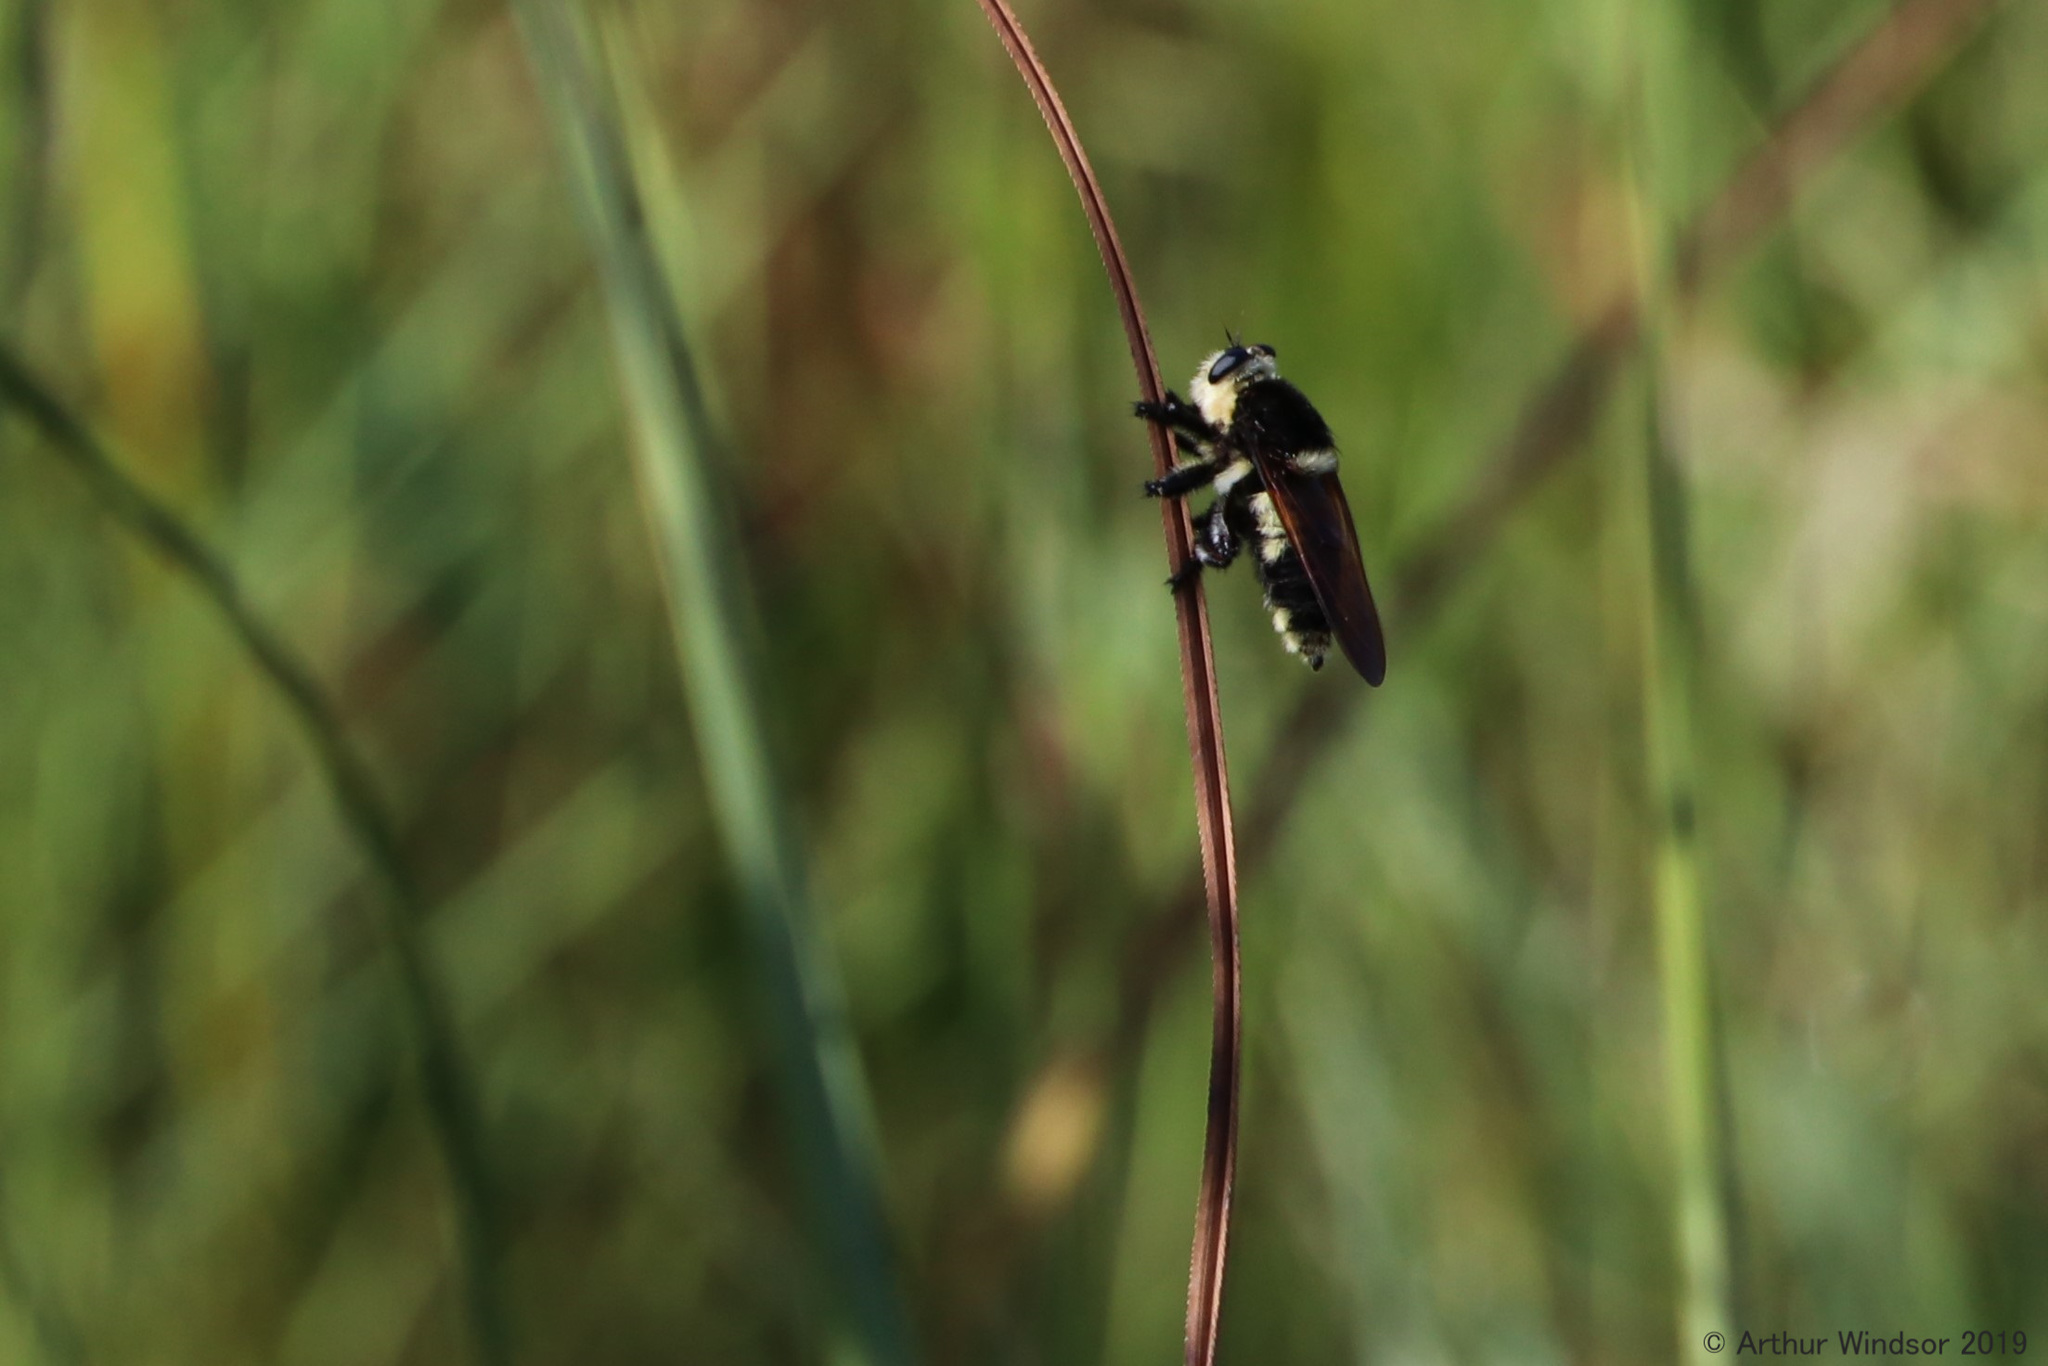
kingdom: Animalia
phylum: Arthropoda
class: Insecta
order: Diptera
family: Asilidae
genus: Mallophora
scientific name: Mallophora bomboides
